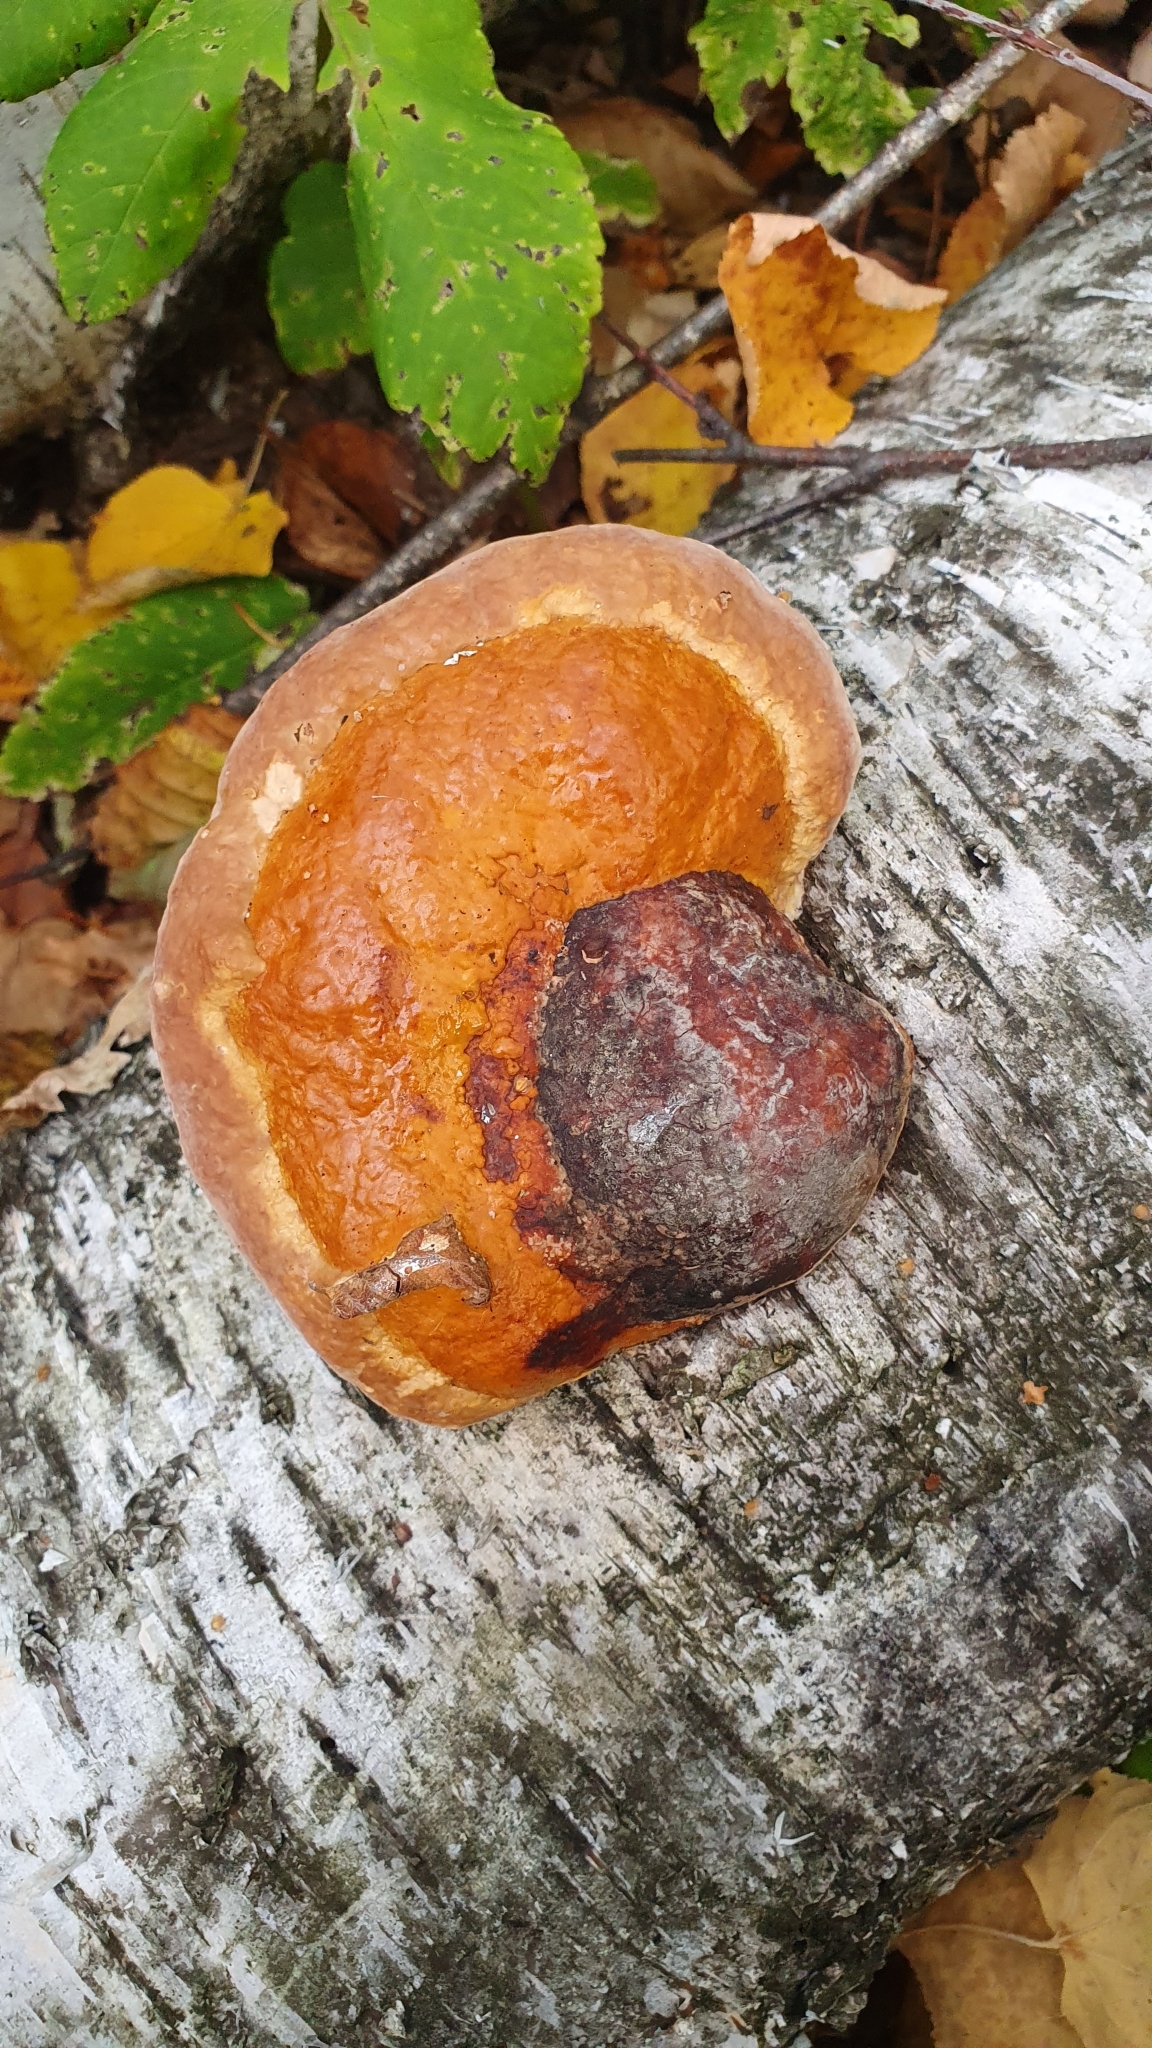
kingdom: Fungi
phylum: Basidiomycota
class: Agaricomycetes
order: Polyporales
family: Fomitopsidaceae
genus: Fomitopsis
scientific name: Fomitopsis pinicola
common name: Red-belted bracket
